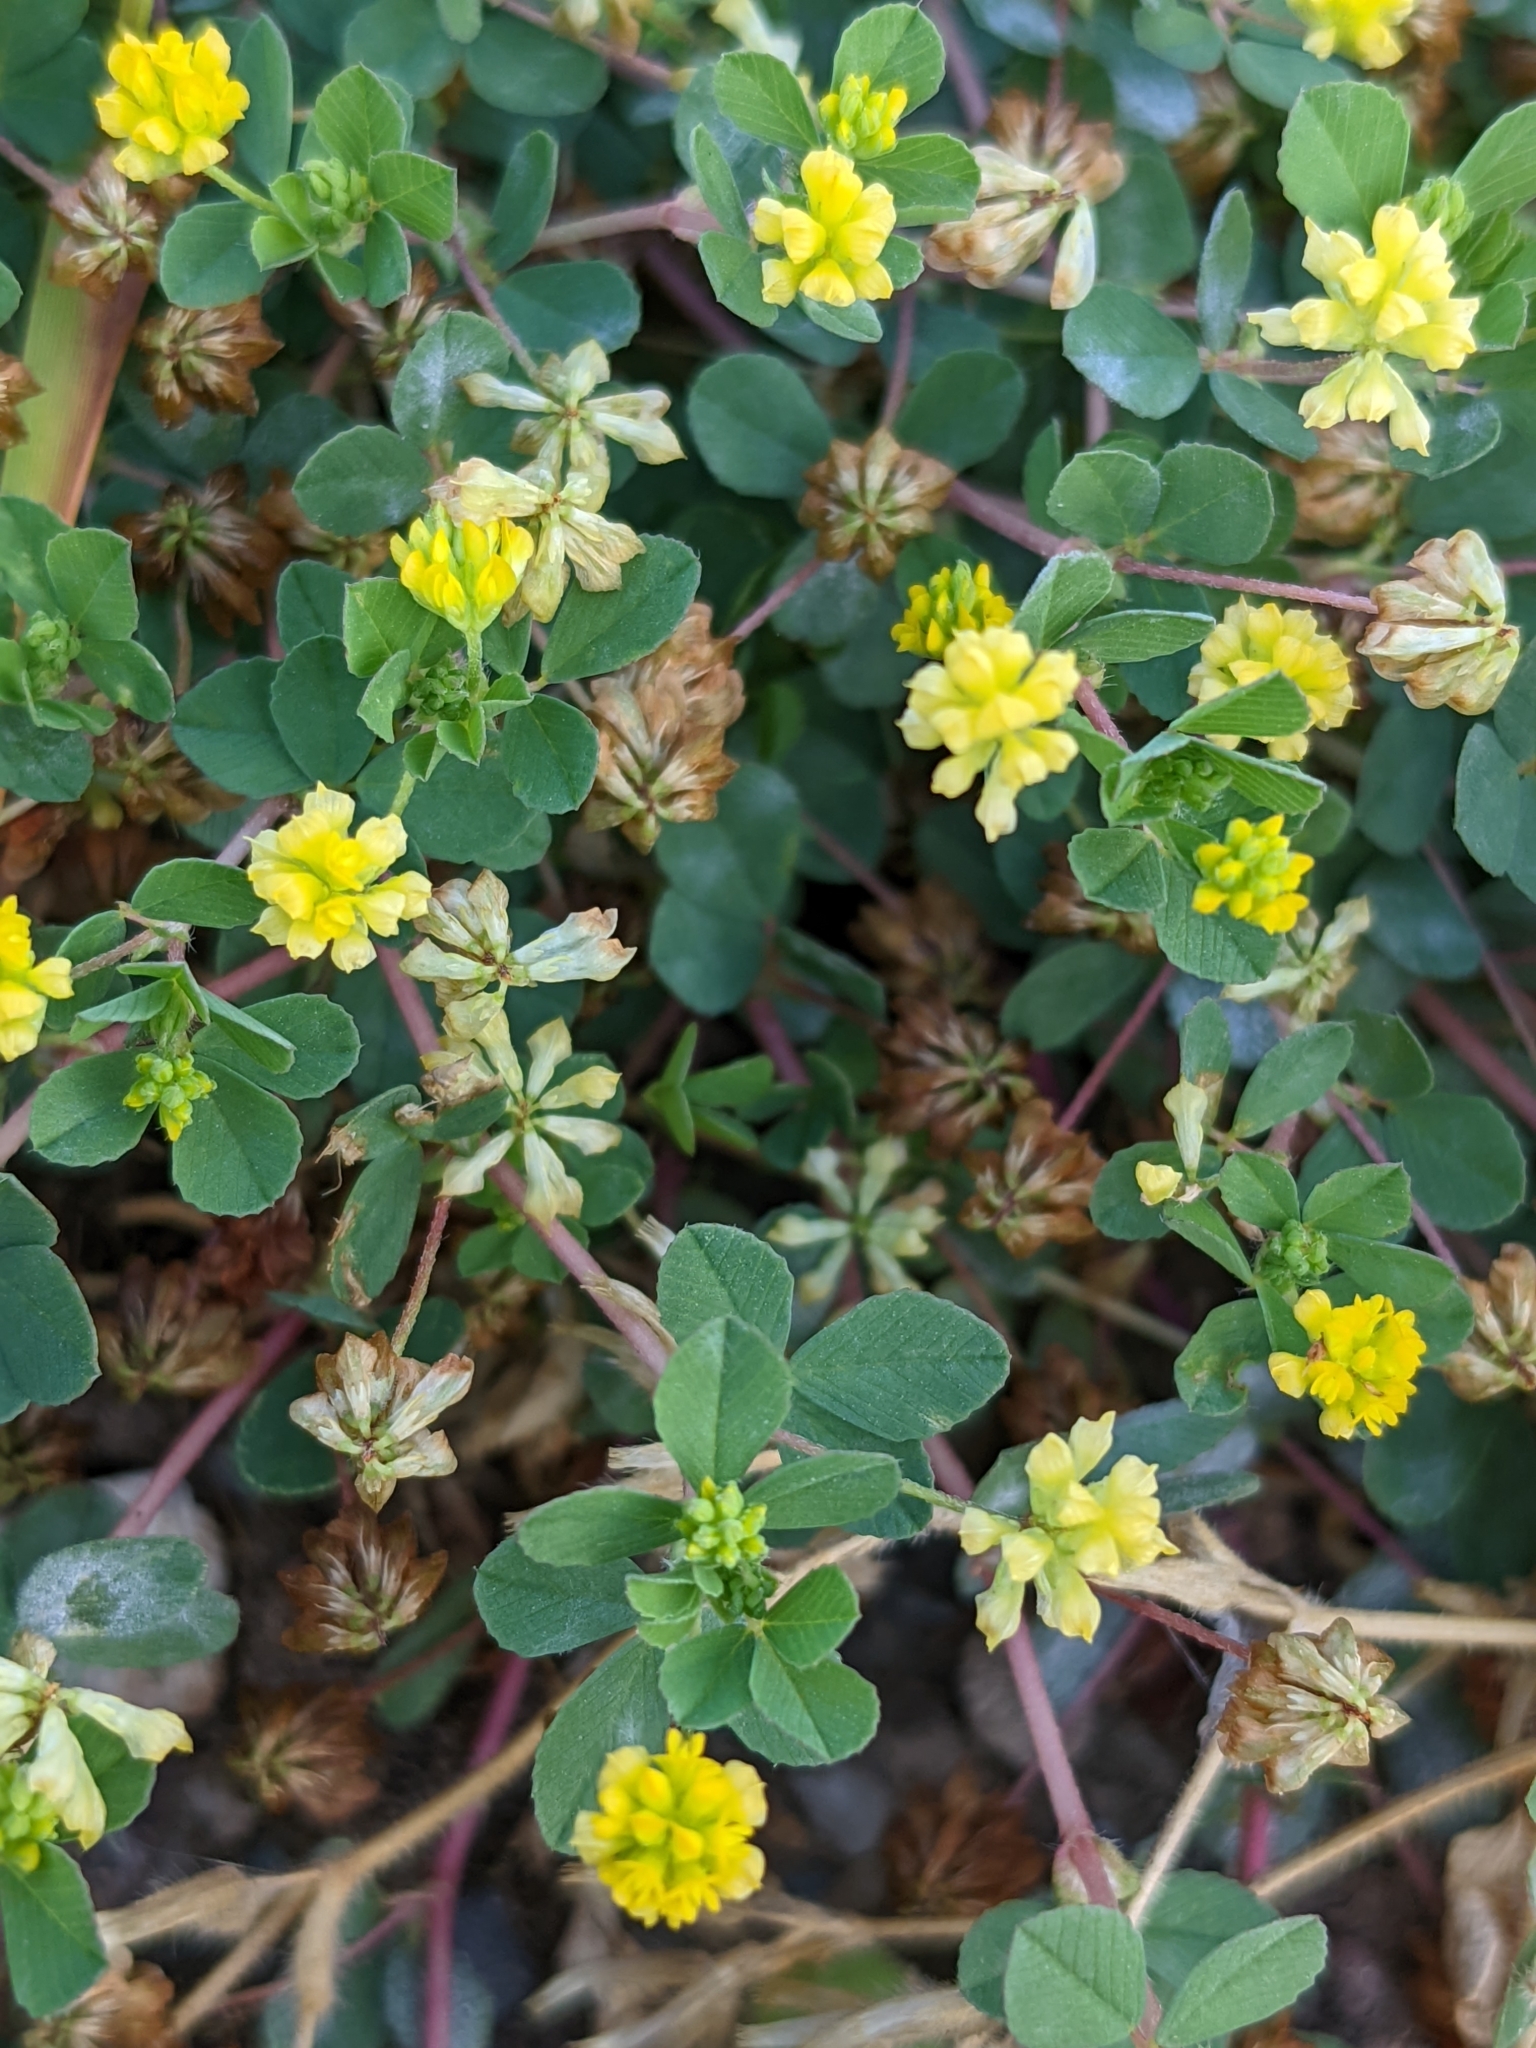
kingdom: Plantae
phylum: Tracheophyta
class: Magnoliopsida
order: Fabales
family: Fabaceae
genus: Trifolium
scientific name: Trifolium dubium
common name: Suckling clover
